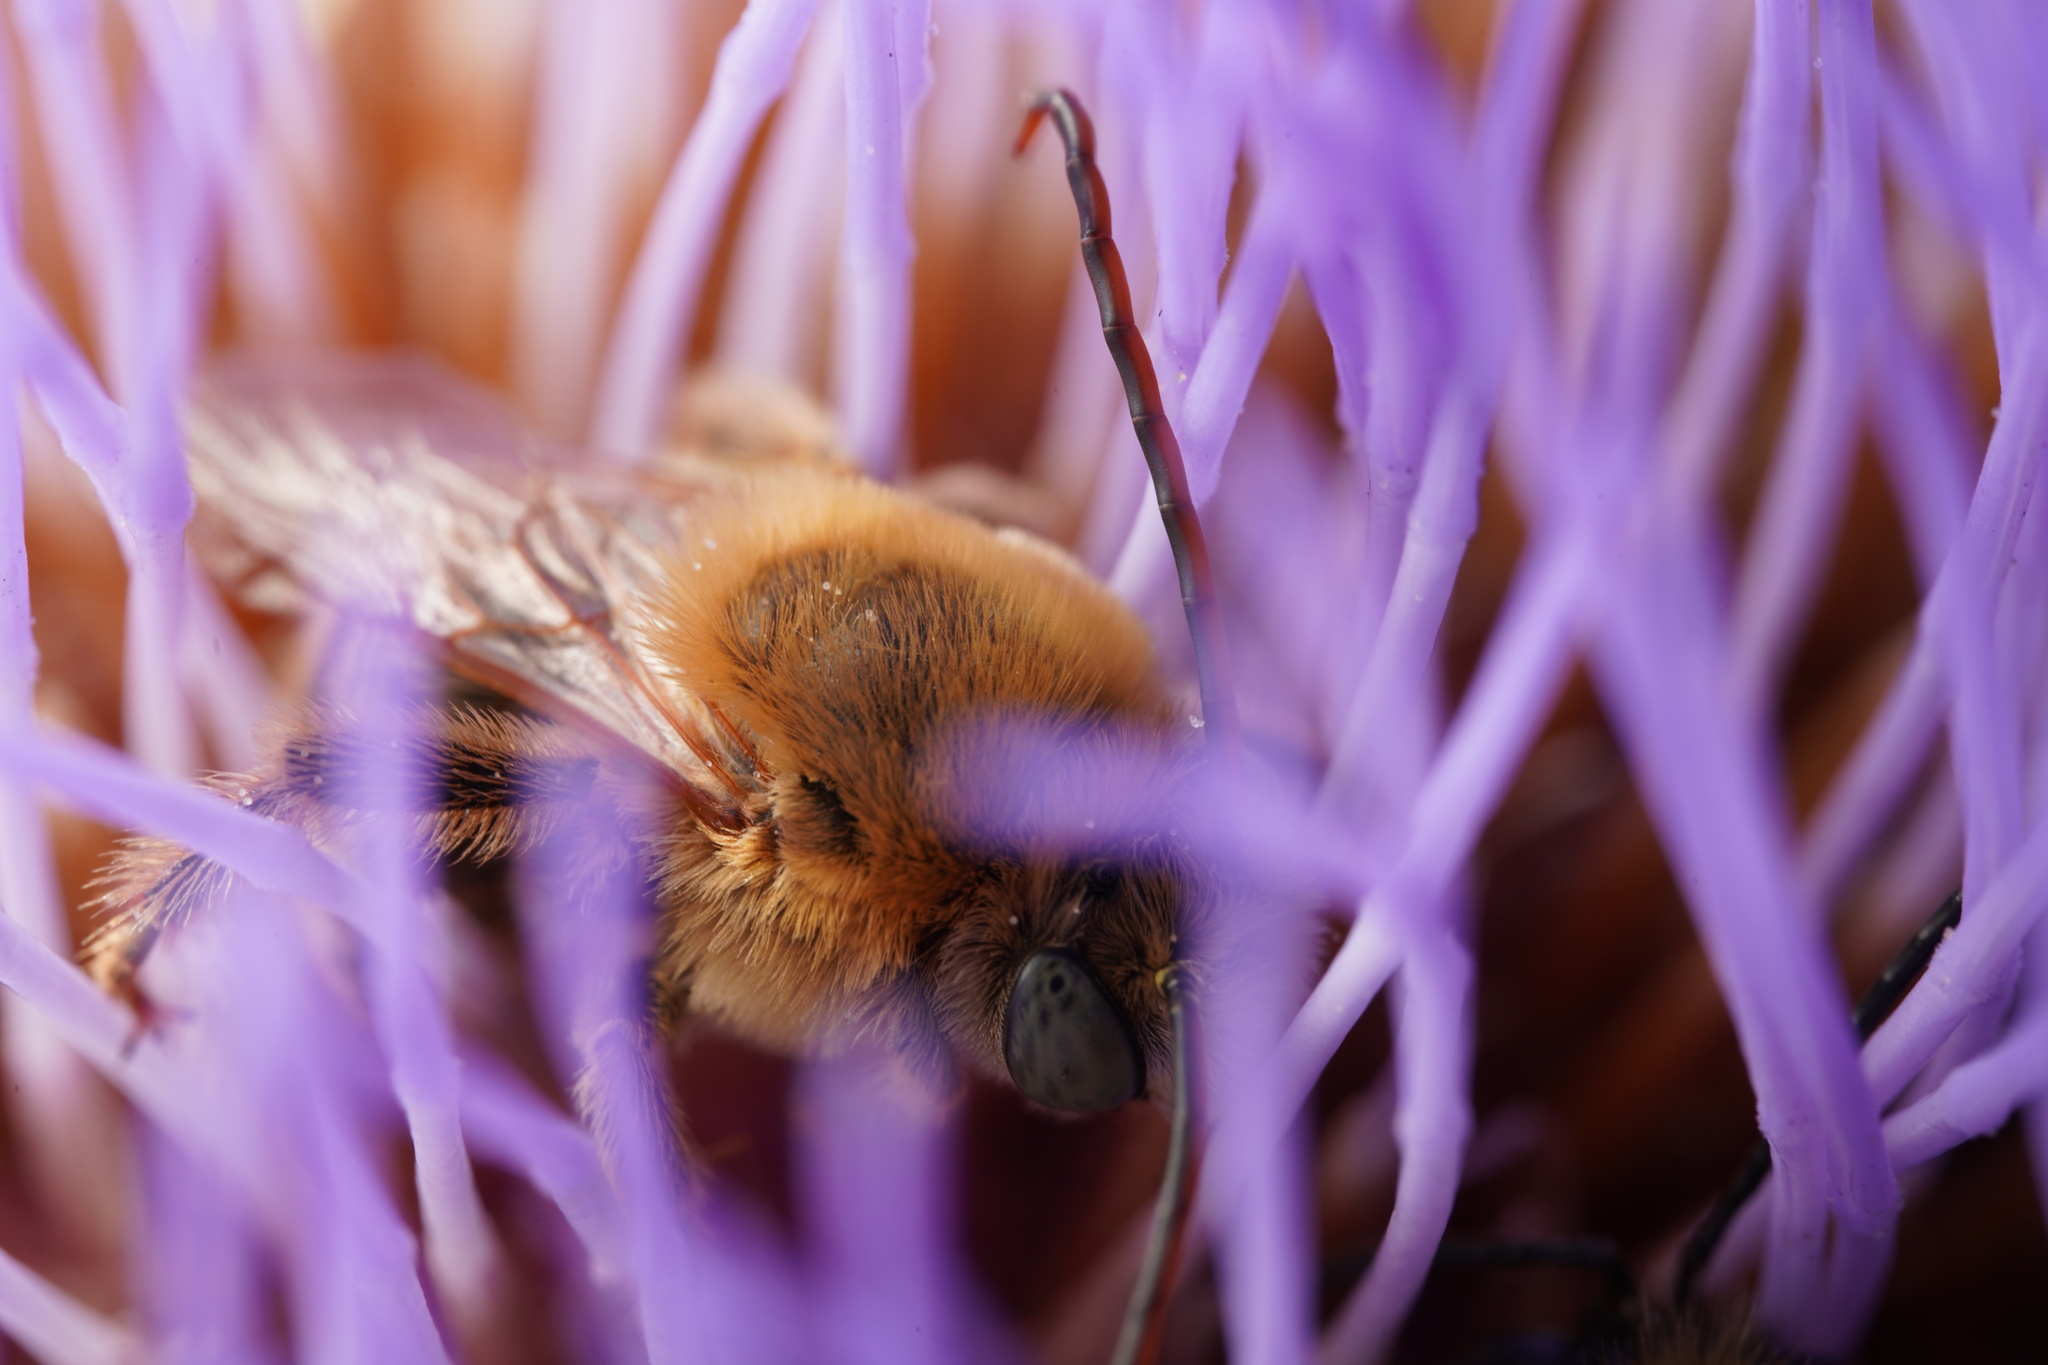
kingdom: Animalia
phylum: Arthropoda
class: Insecta
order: Hymenoptera
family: Apidae
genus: Melissodes
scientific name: Melissodes trinodis
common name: Dark-veined longhorn
